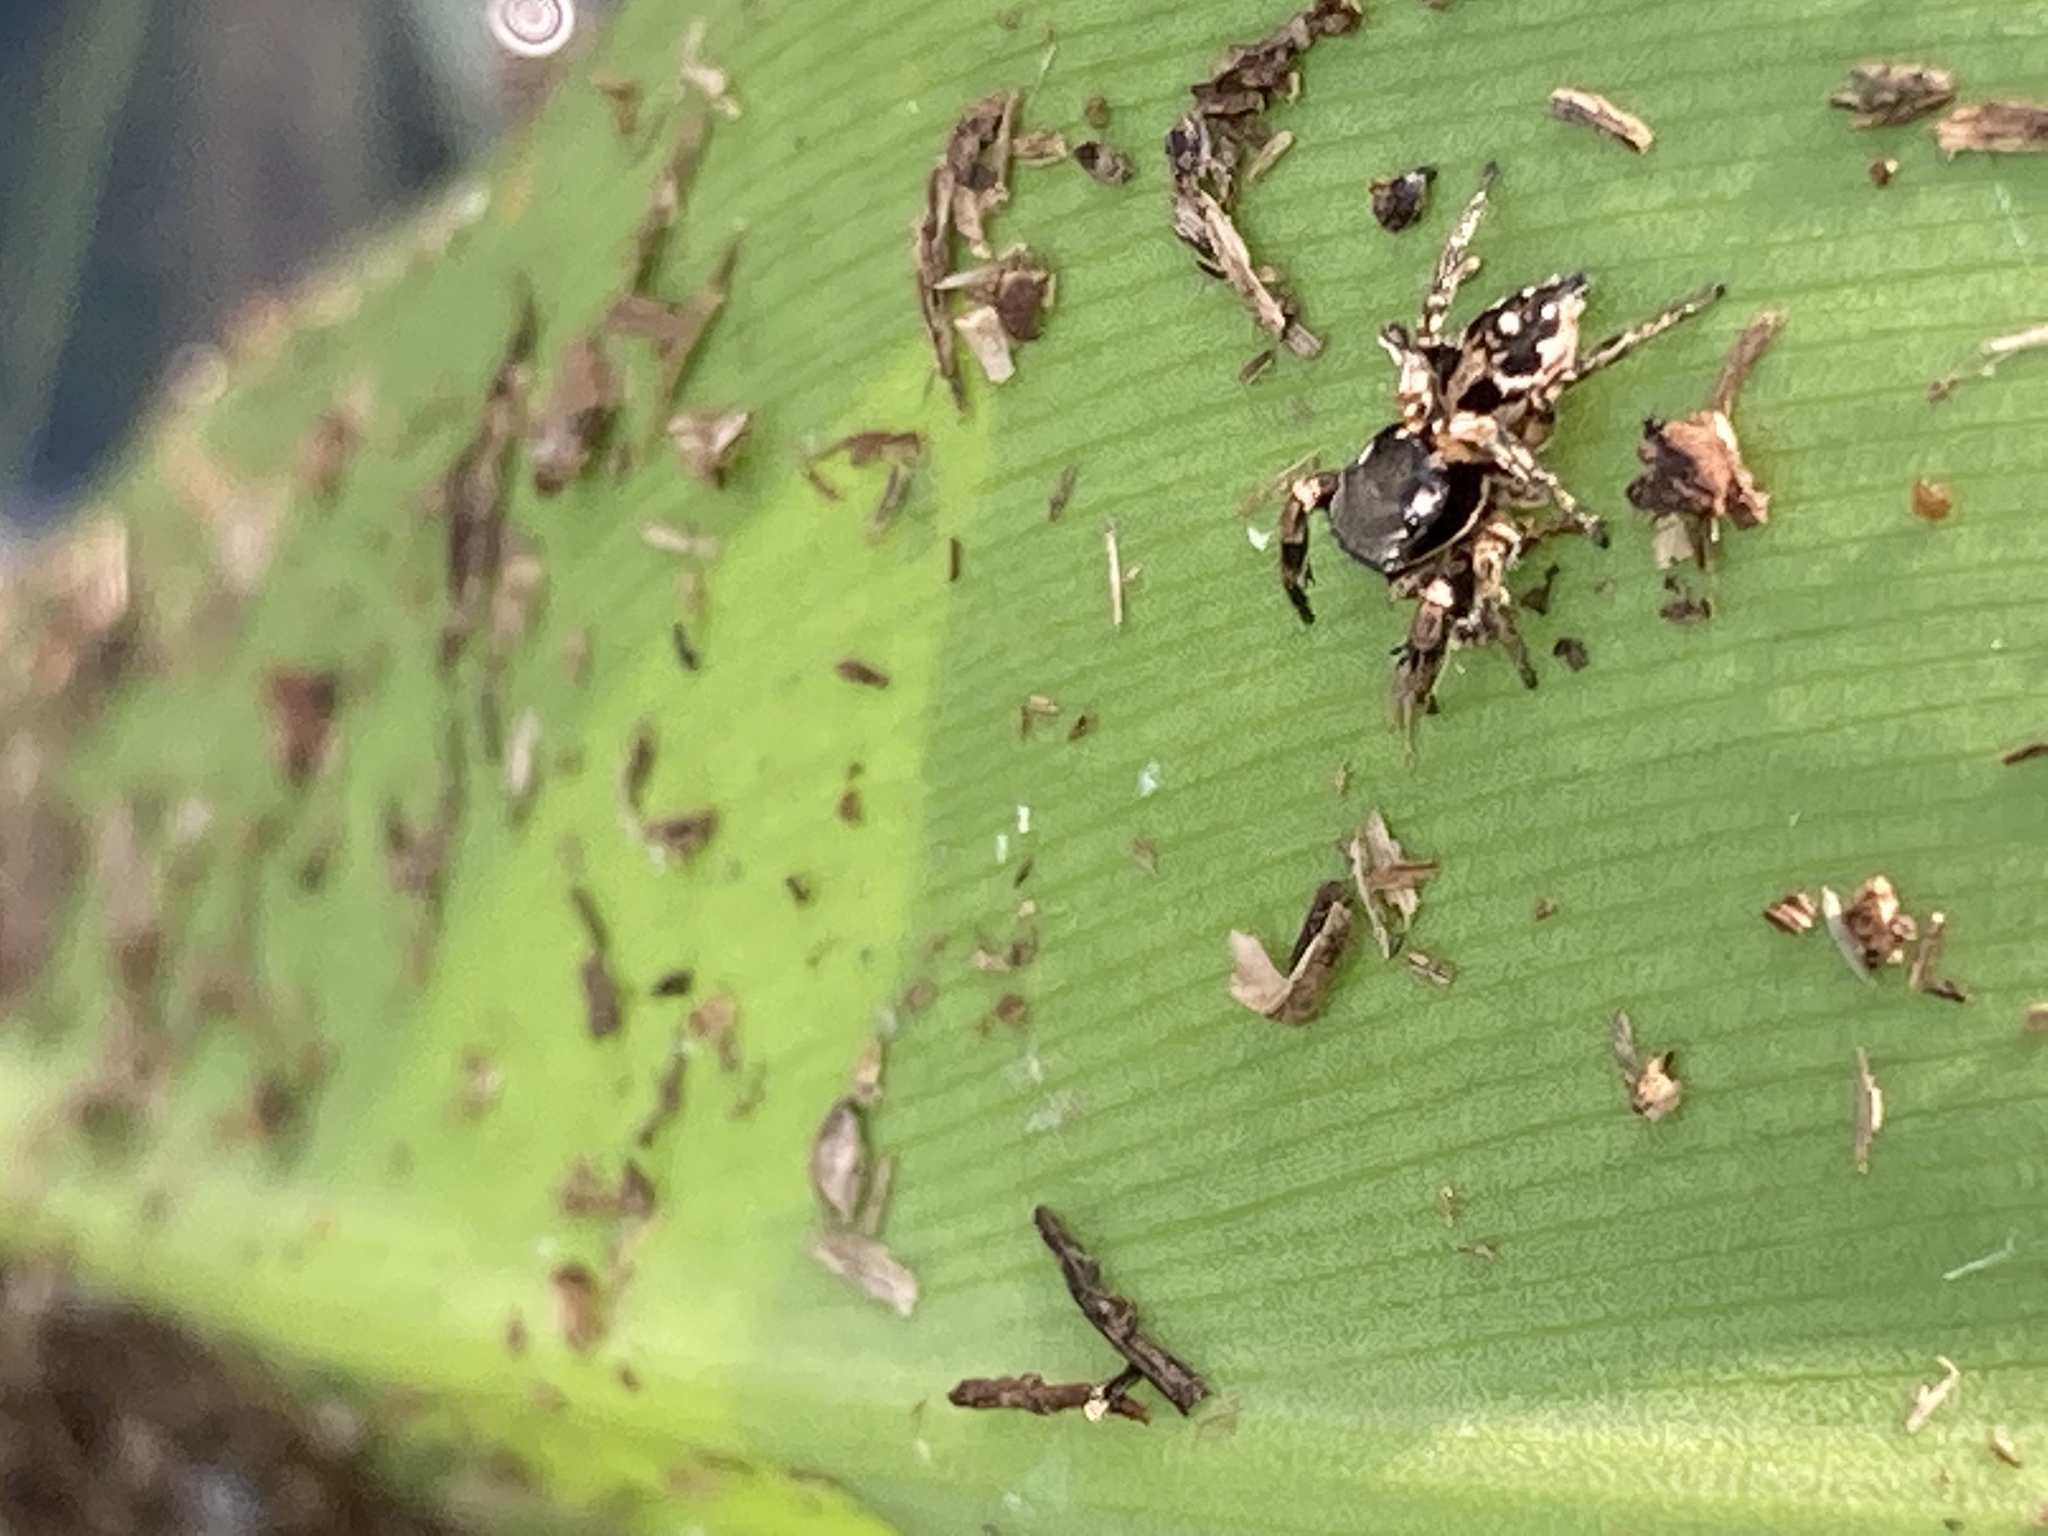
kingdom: Animalia
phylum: Arthropoda
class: Arachnida
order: Araneae
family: Salticidae
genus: Habronattus
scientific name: Habronattus brunneus
